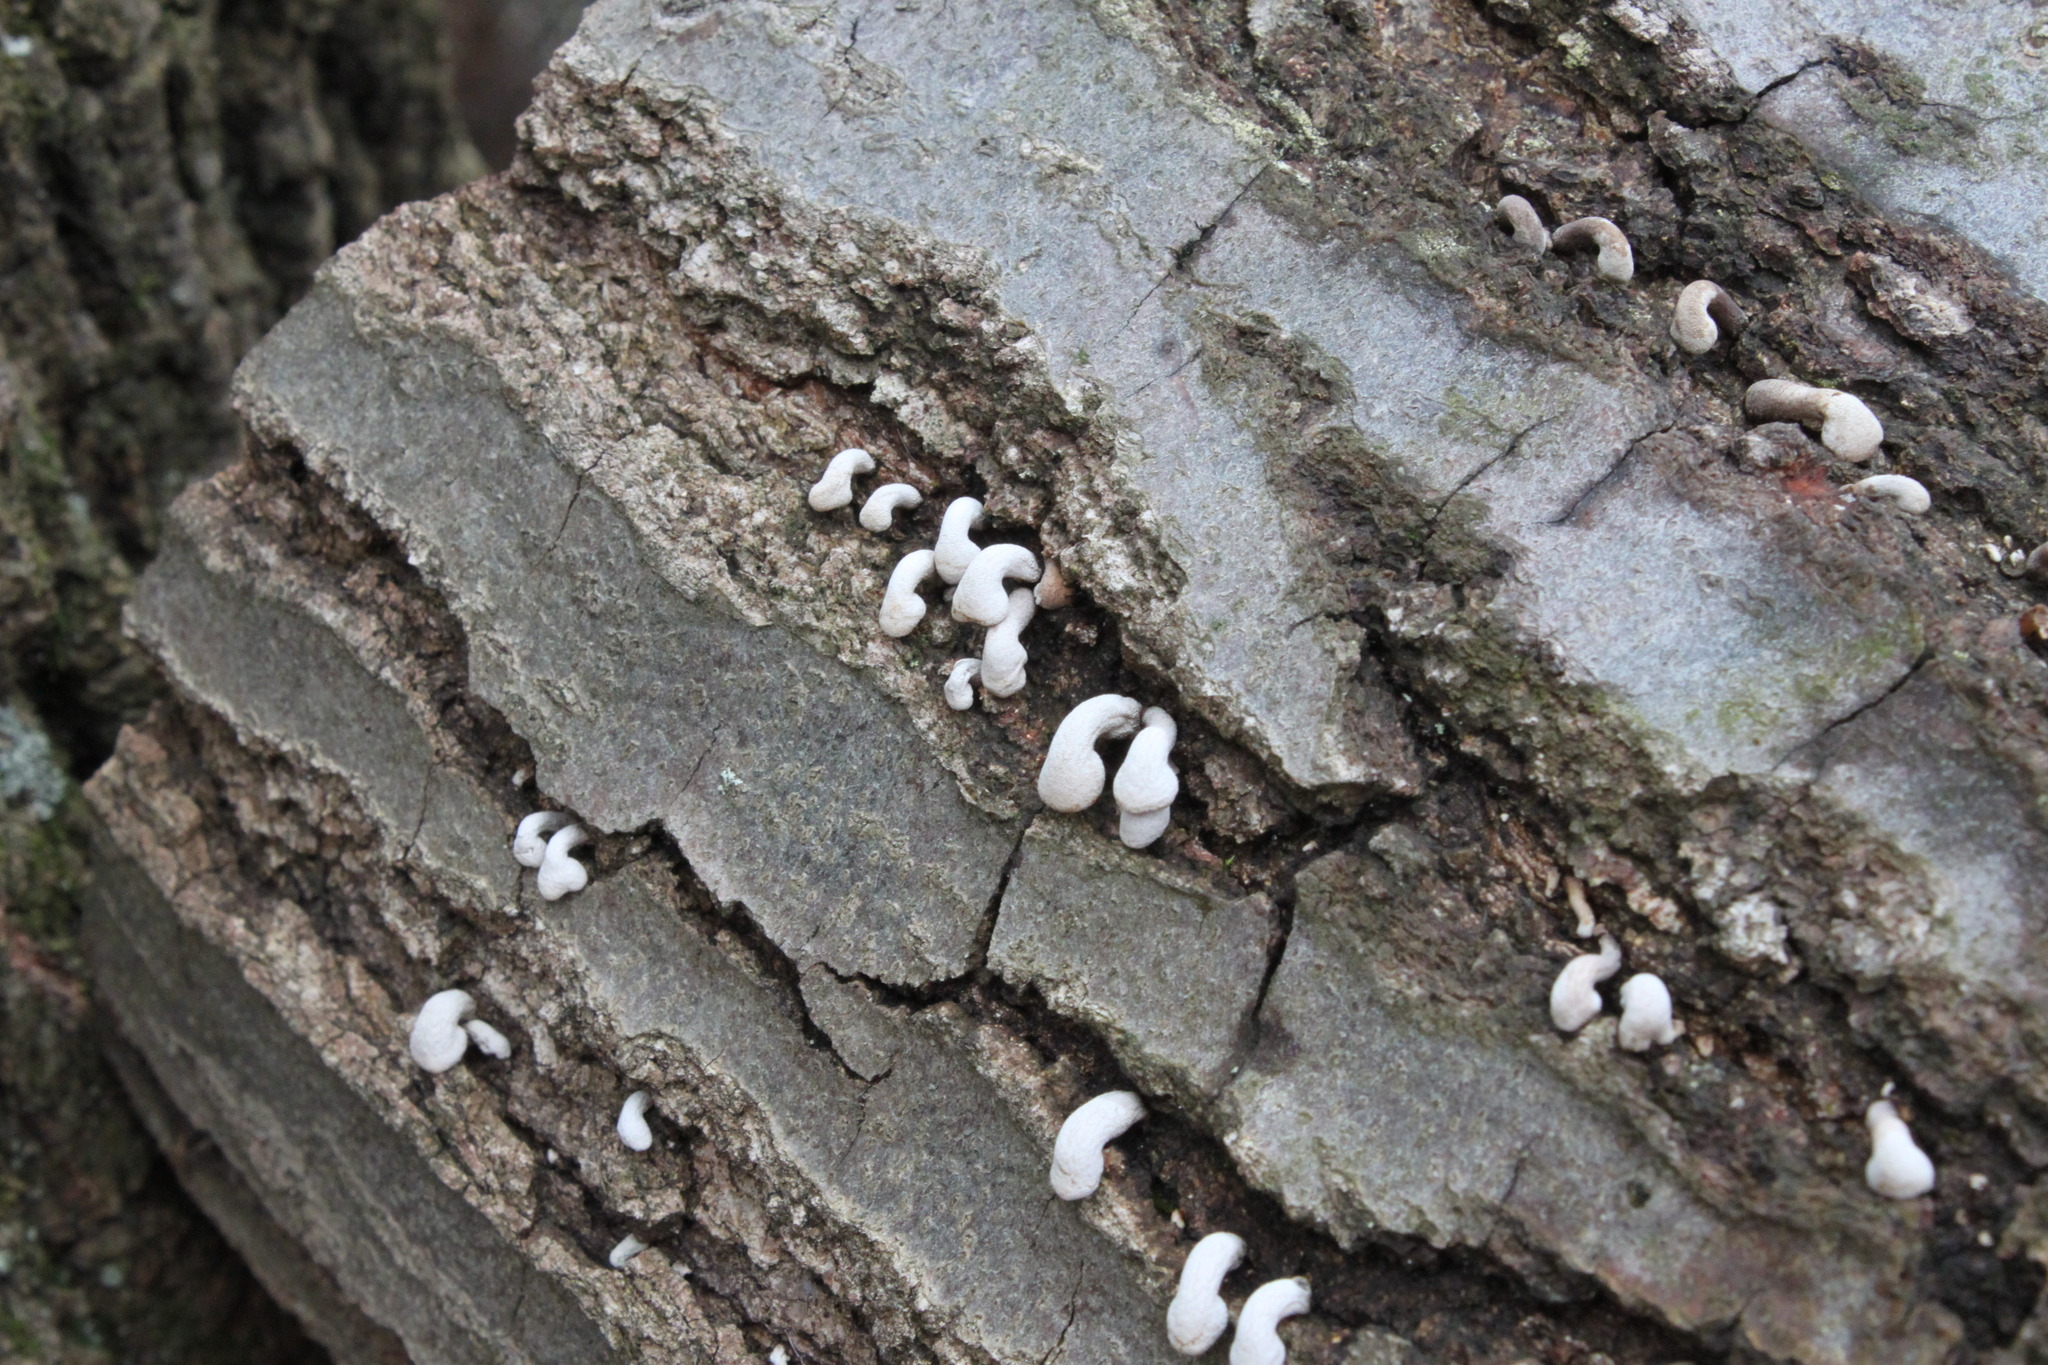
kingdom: Fungi
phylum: Basidiomycota
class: Agaricomycetes
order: Agaricales
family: Schizophyllaceae
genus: Porodisculus
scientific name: Porodisculus pendulus
